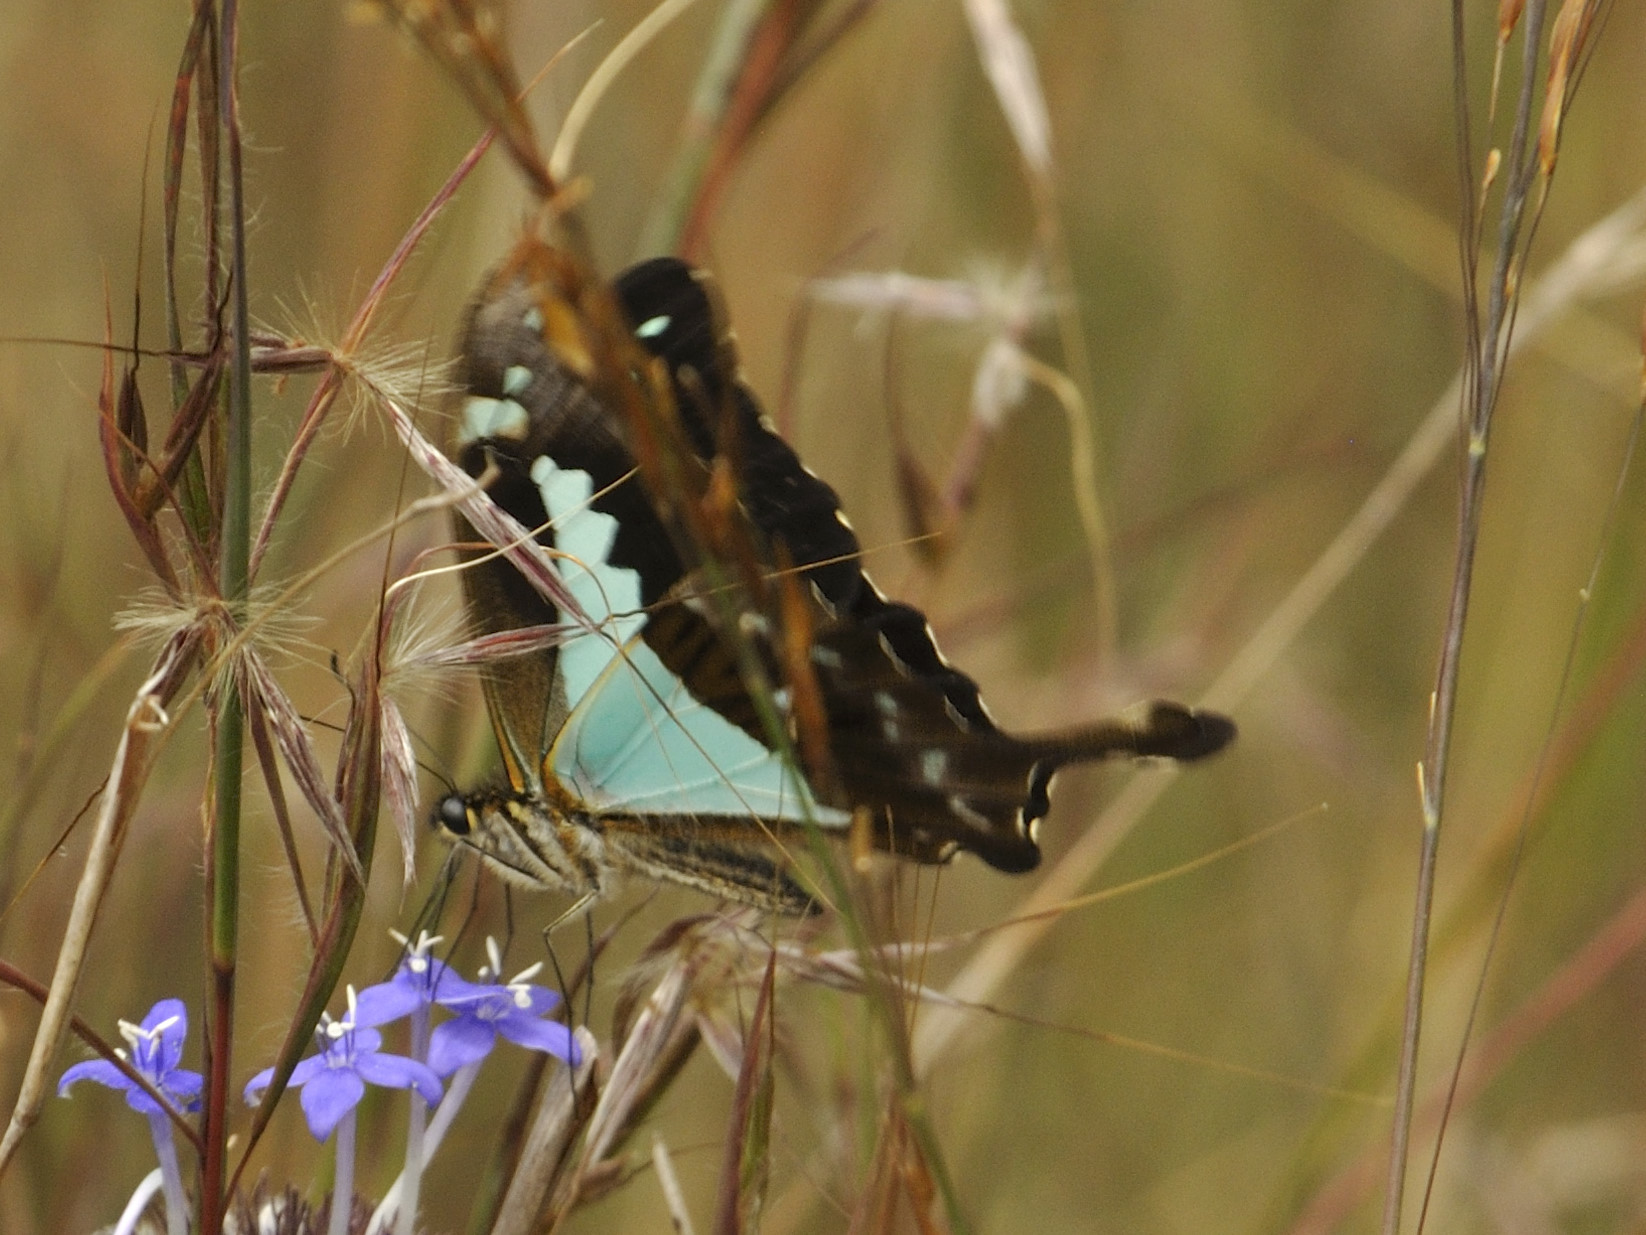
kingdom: Animalia
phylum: Arthropoda
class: Insecta
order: Lepidoptera
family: Papilionidae
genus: Papilio
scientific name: Papilio phorcas
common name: Apple-green swallowtail
